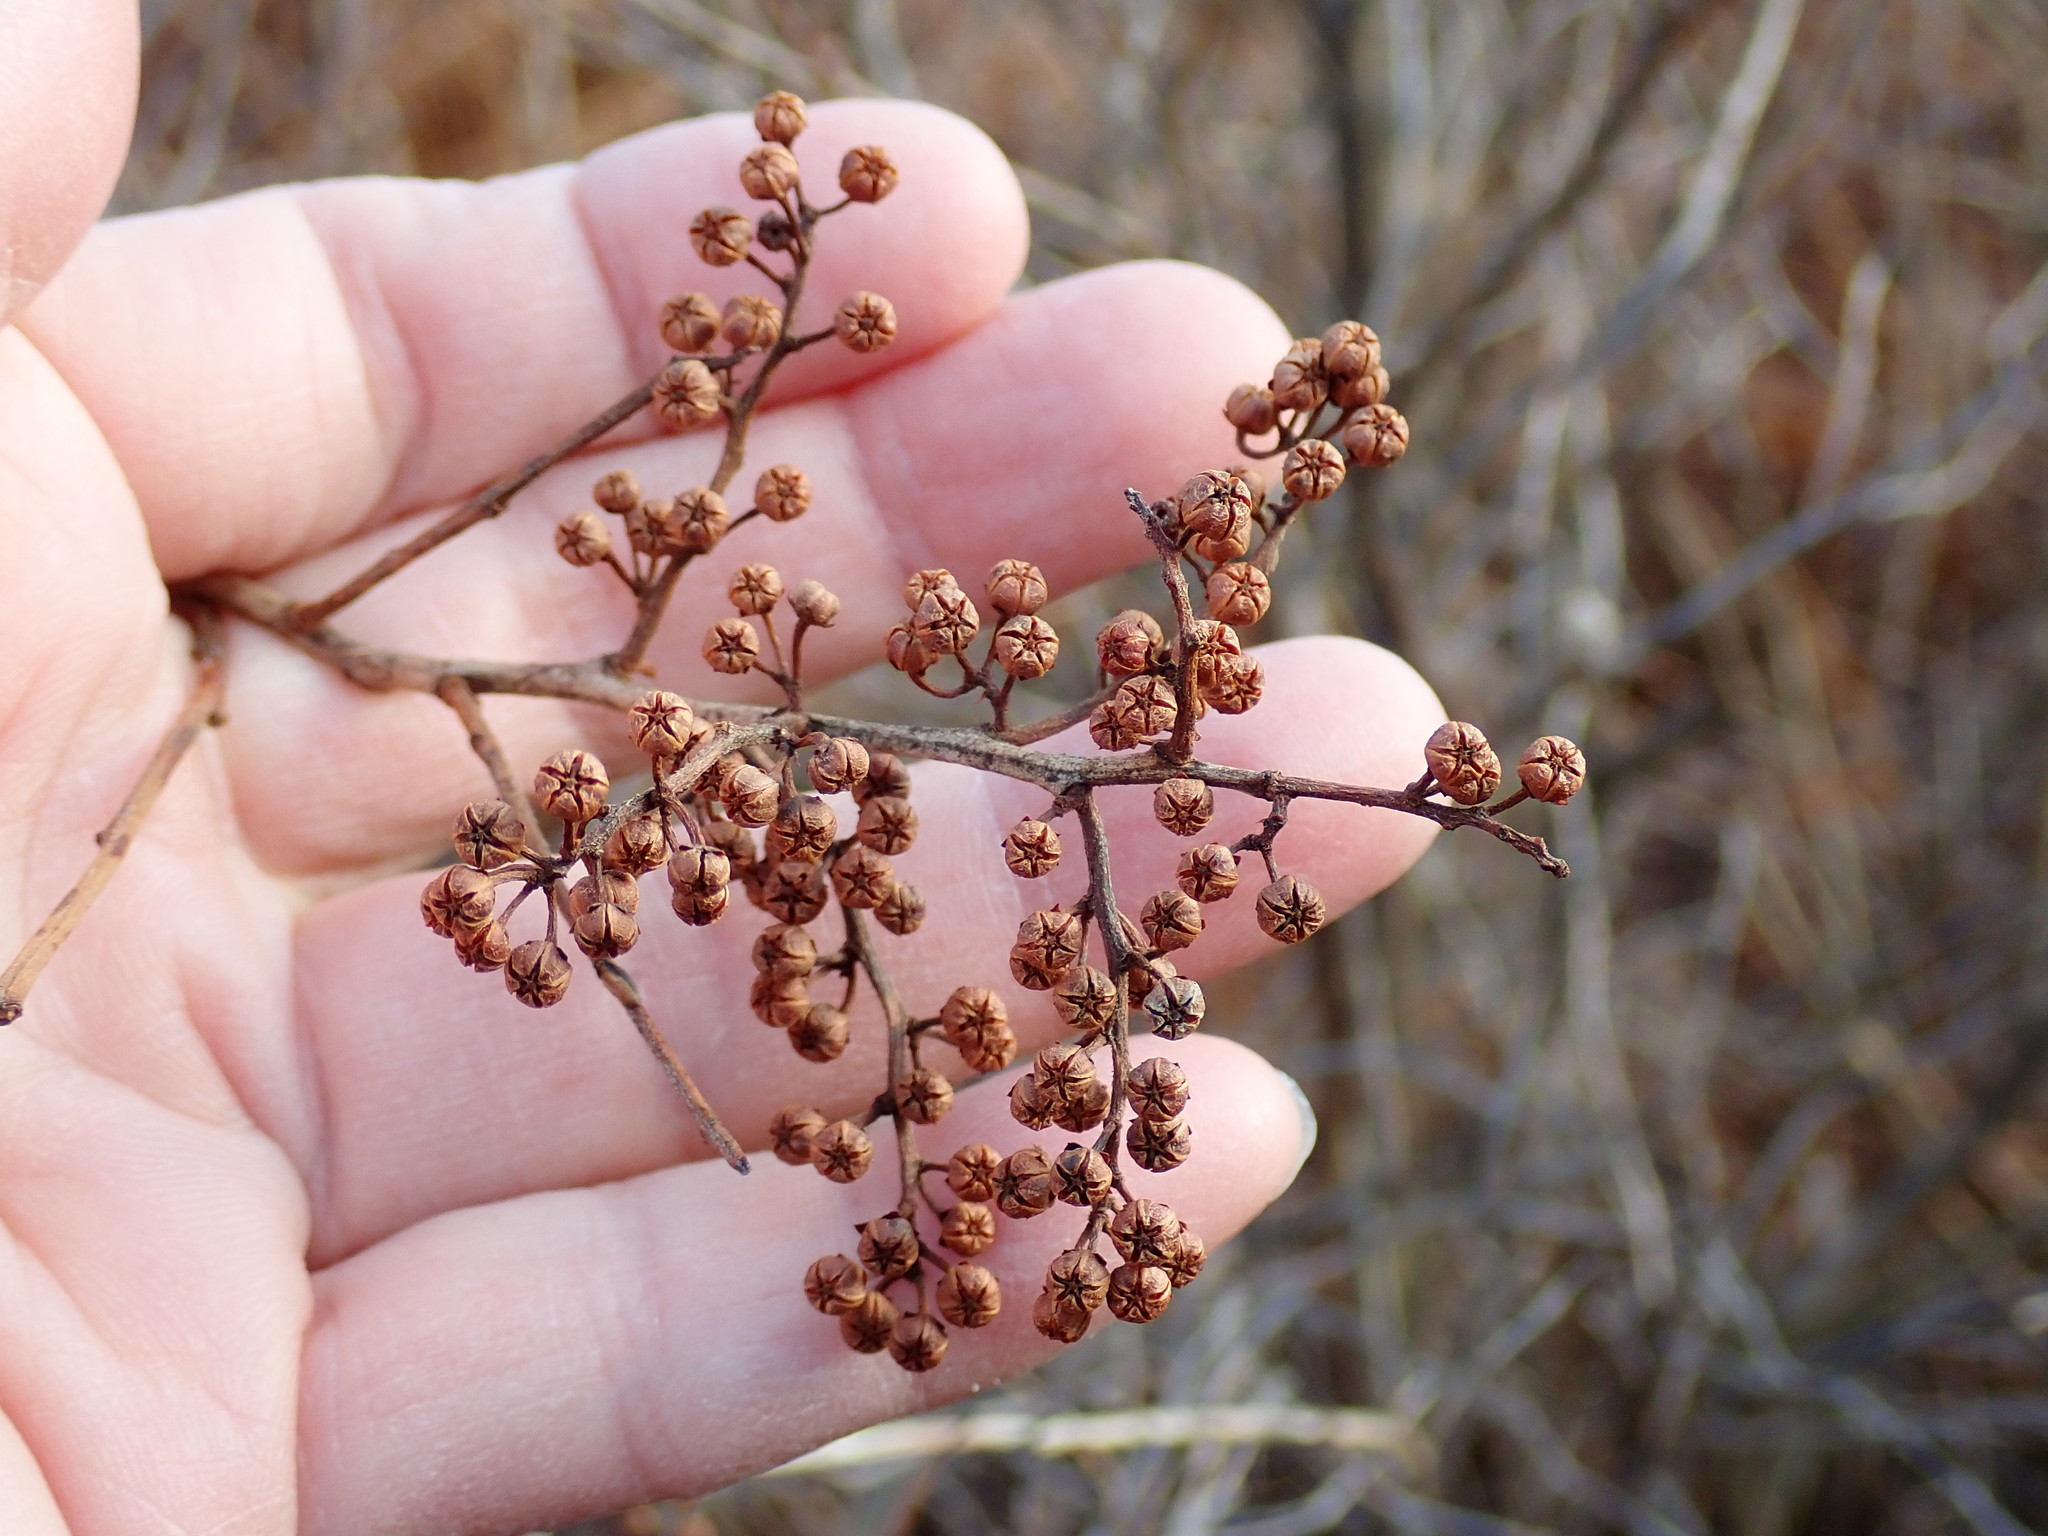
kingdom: Plantae
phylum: Tracheophyta
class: Magnoliopsida
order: Ericales
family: Ericaceae
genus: Lyonia
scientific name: Lyonia ligustrina
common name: Maleberry
